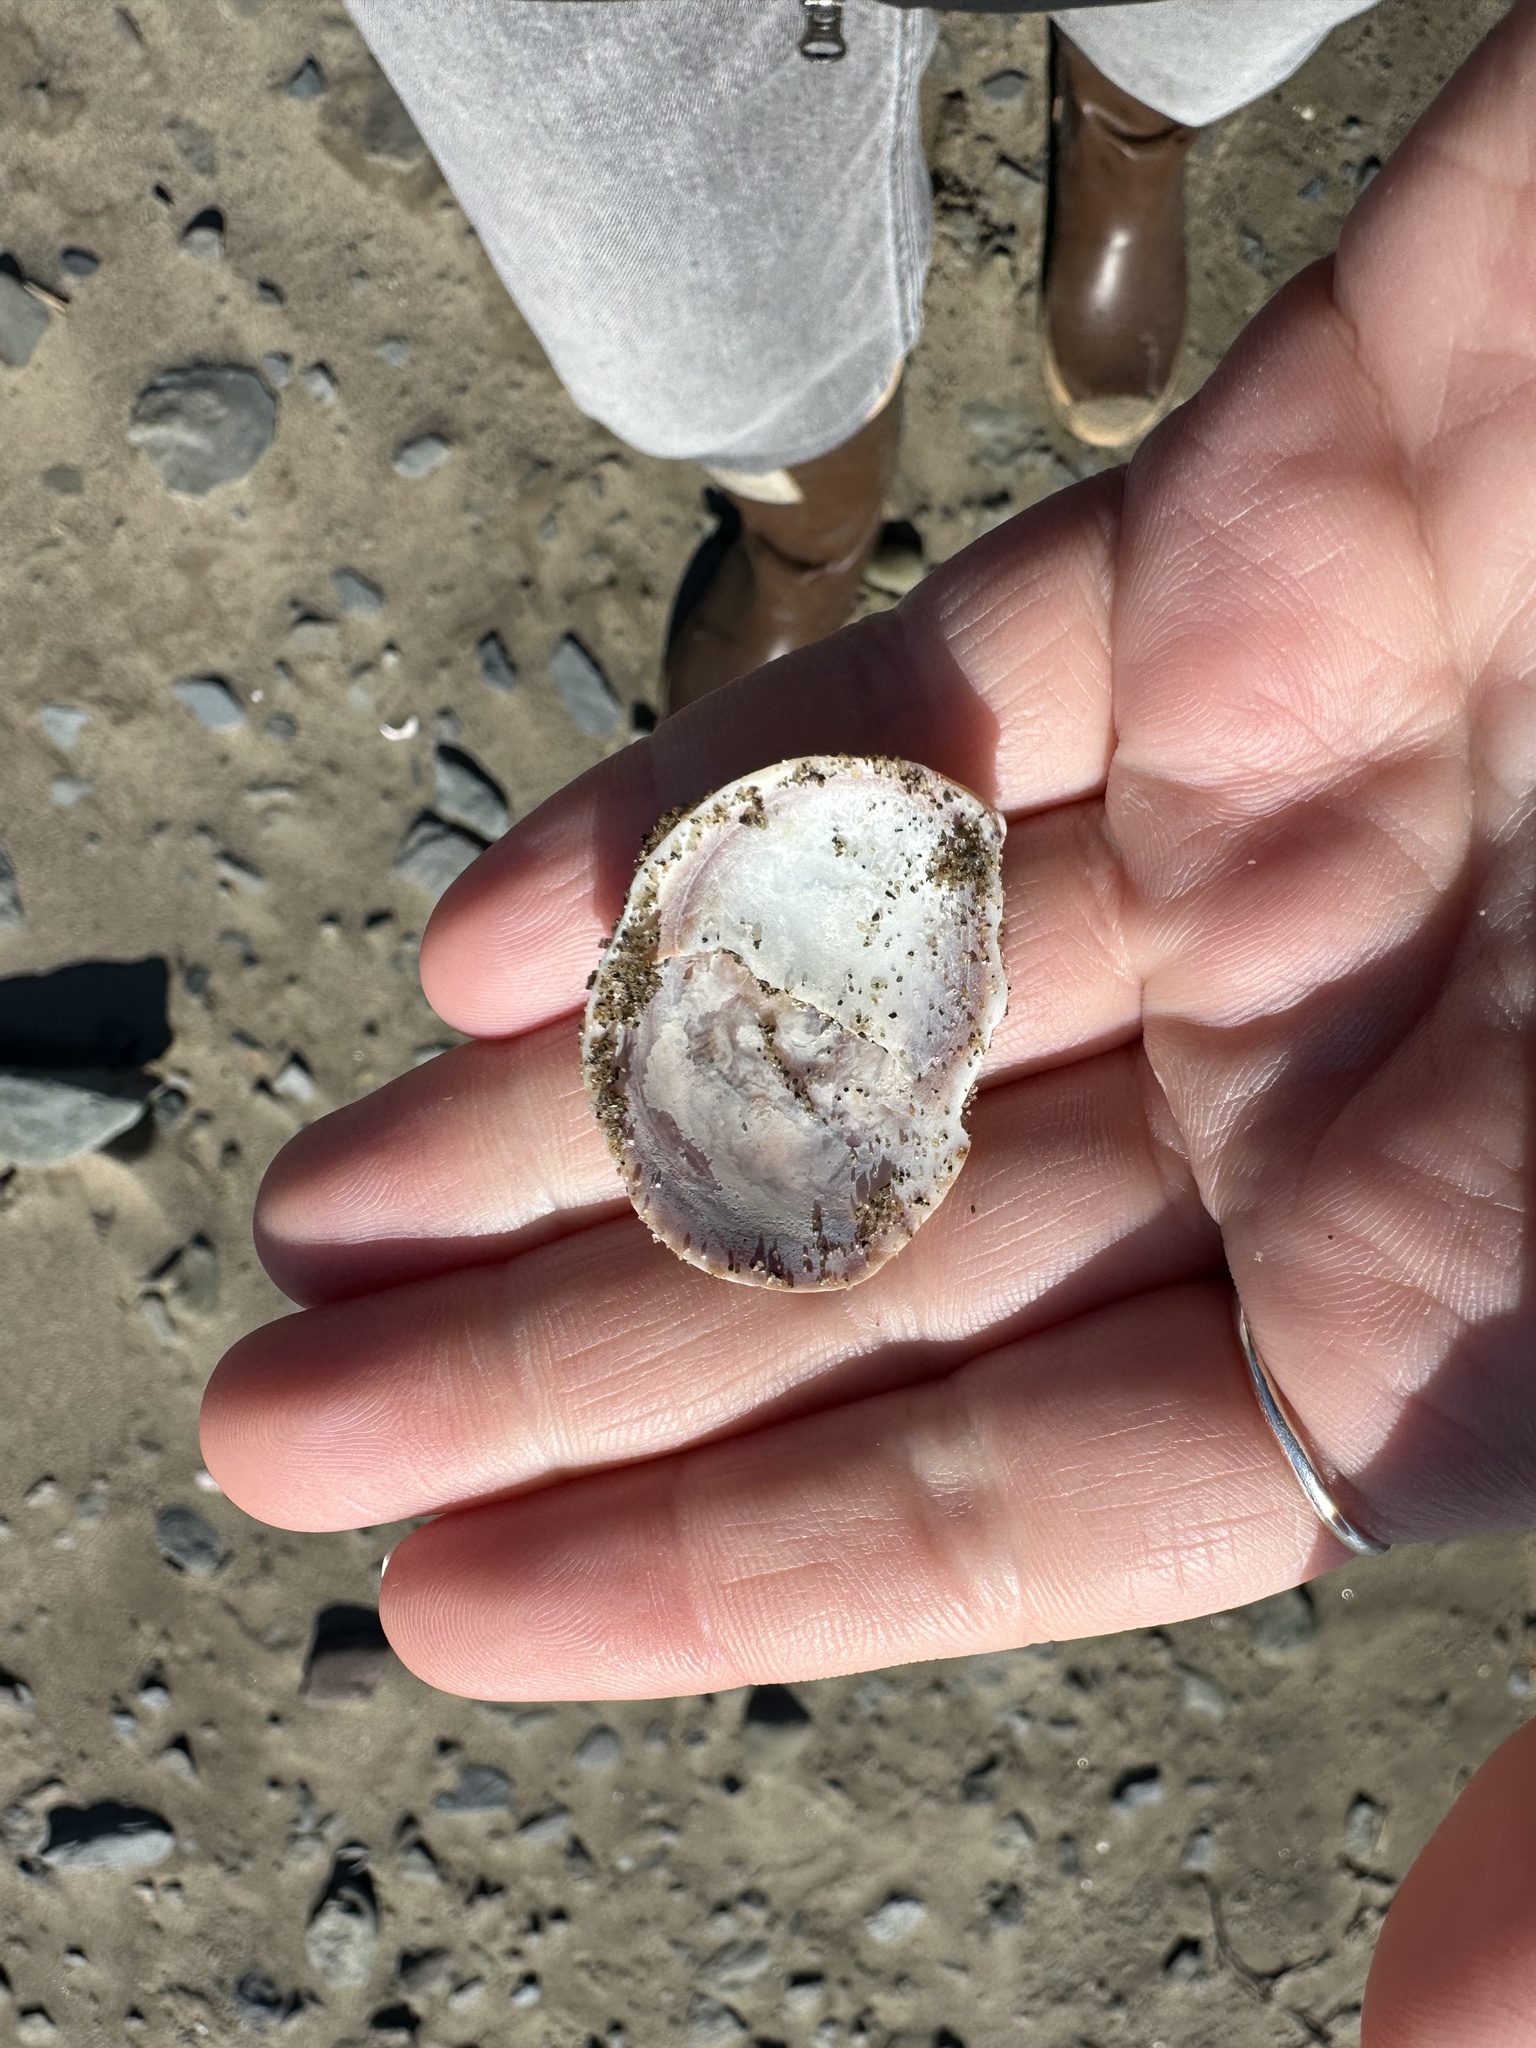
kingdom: Animalia
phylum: Mollusca
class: Gastropoda
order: Littorinimorpha
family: Calyptraeidae
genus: Crepidula
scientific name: Crepidula fornicata
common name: Slipper limpet
